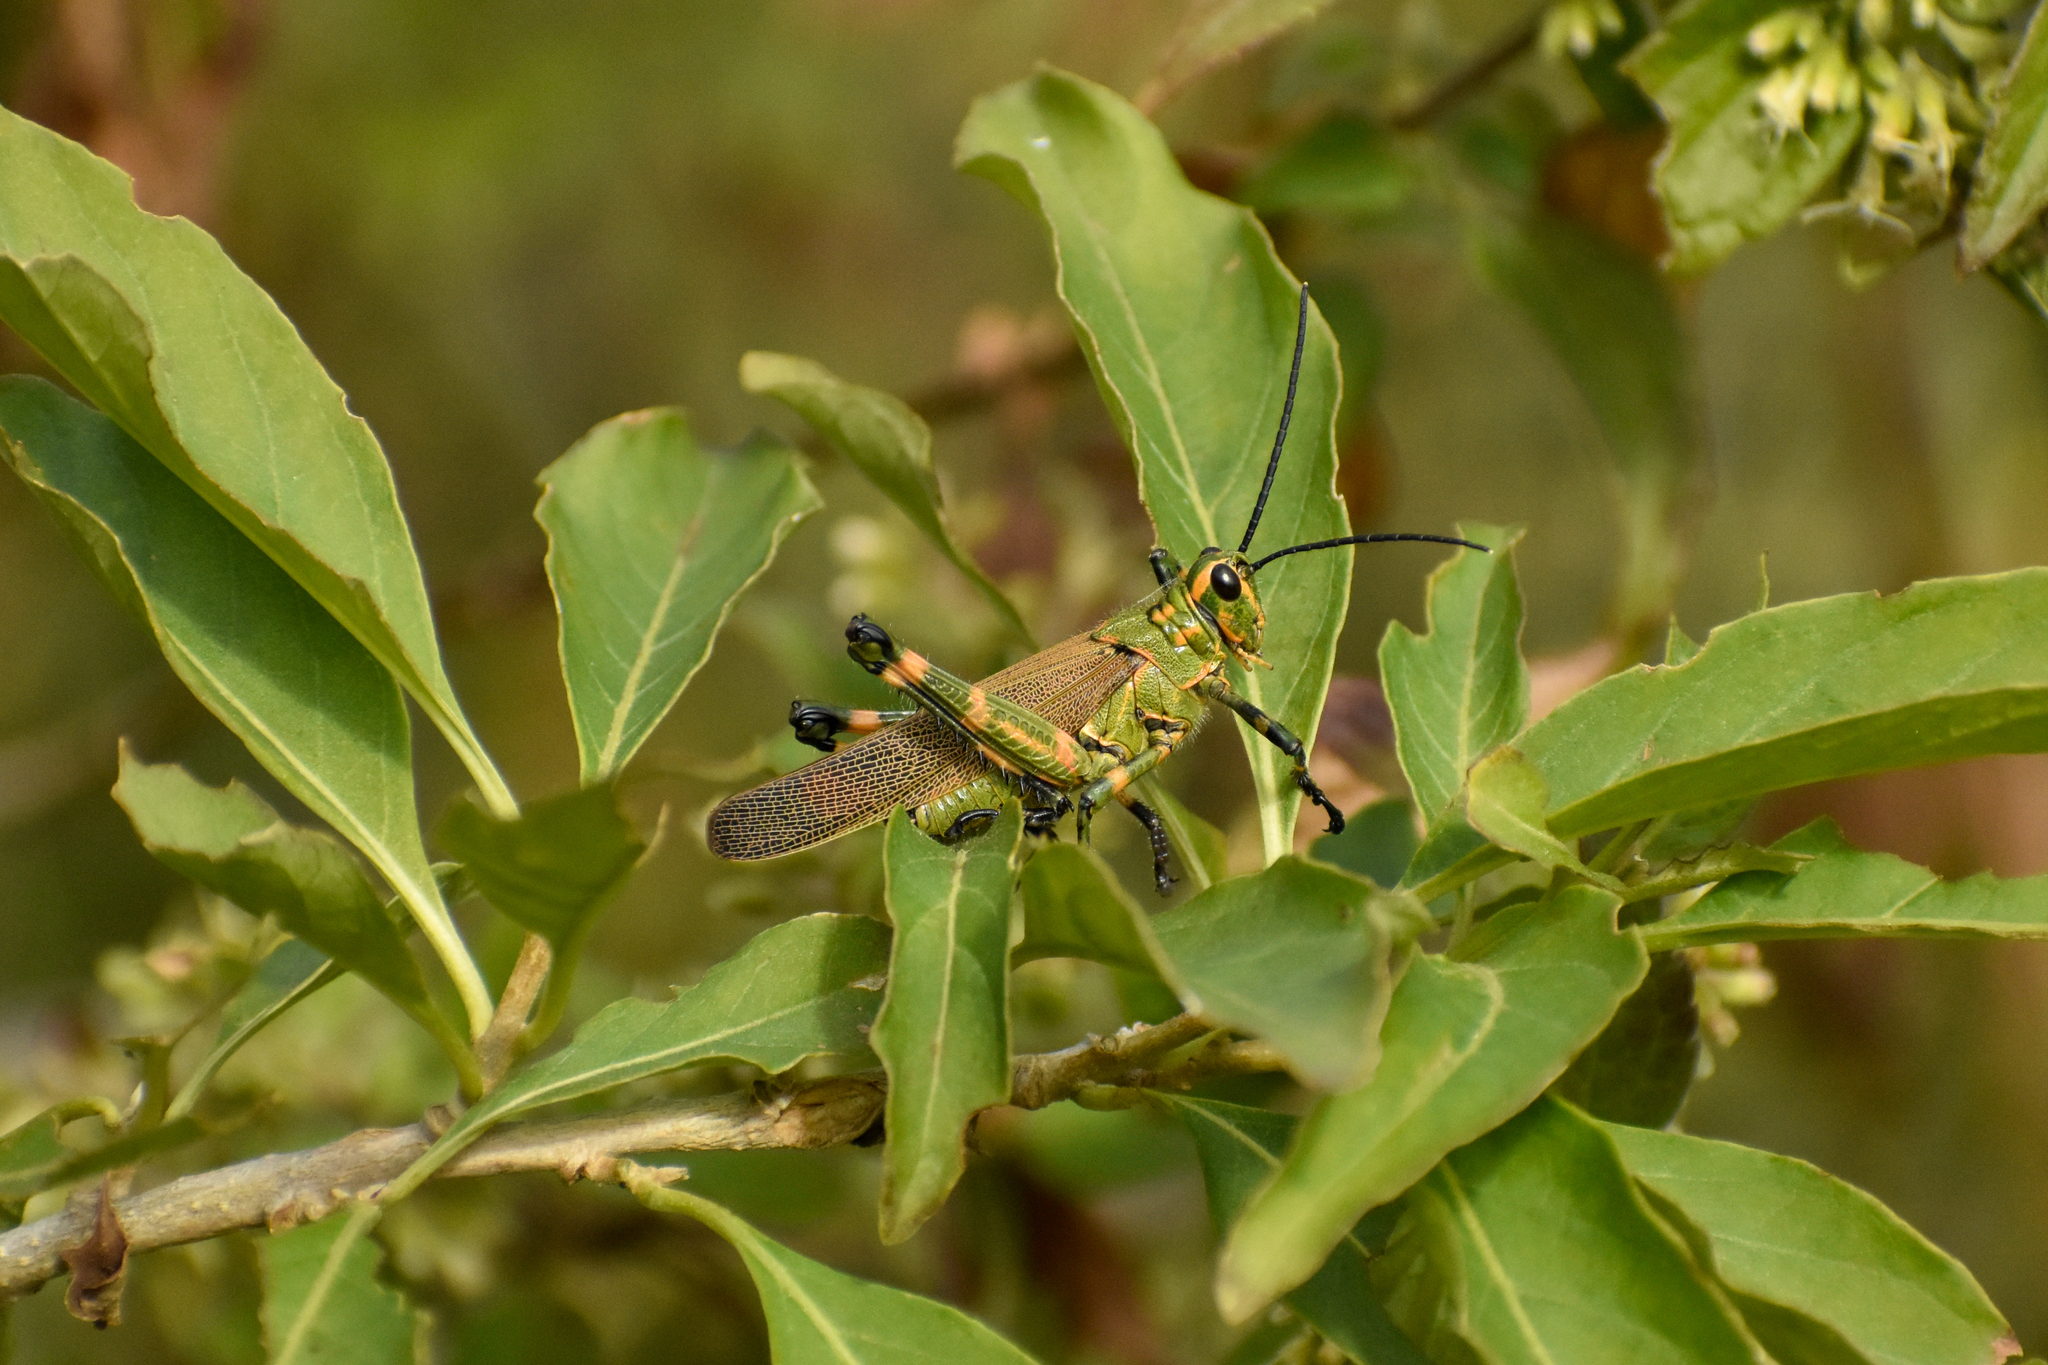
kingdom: Animalia
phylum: Arthropoda
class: Insecta
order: Orthoptera
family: Romaleidae
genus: Chromacris
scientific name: Chromacris speciosa
